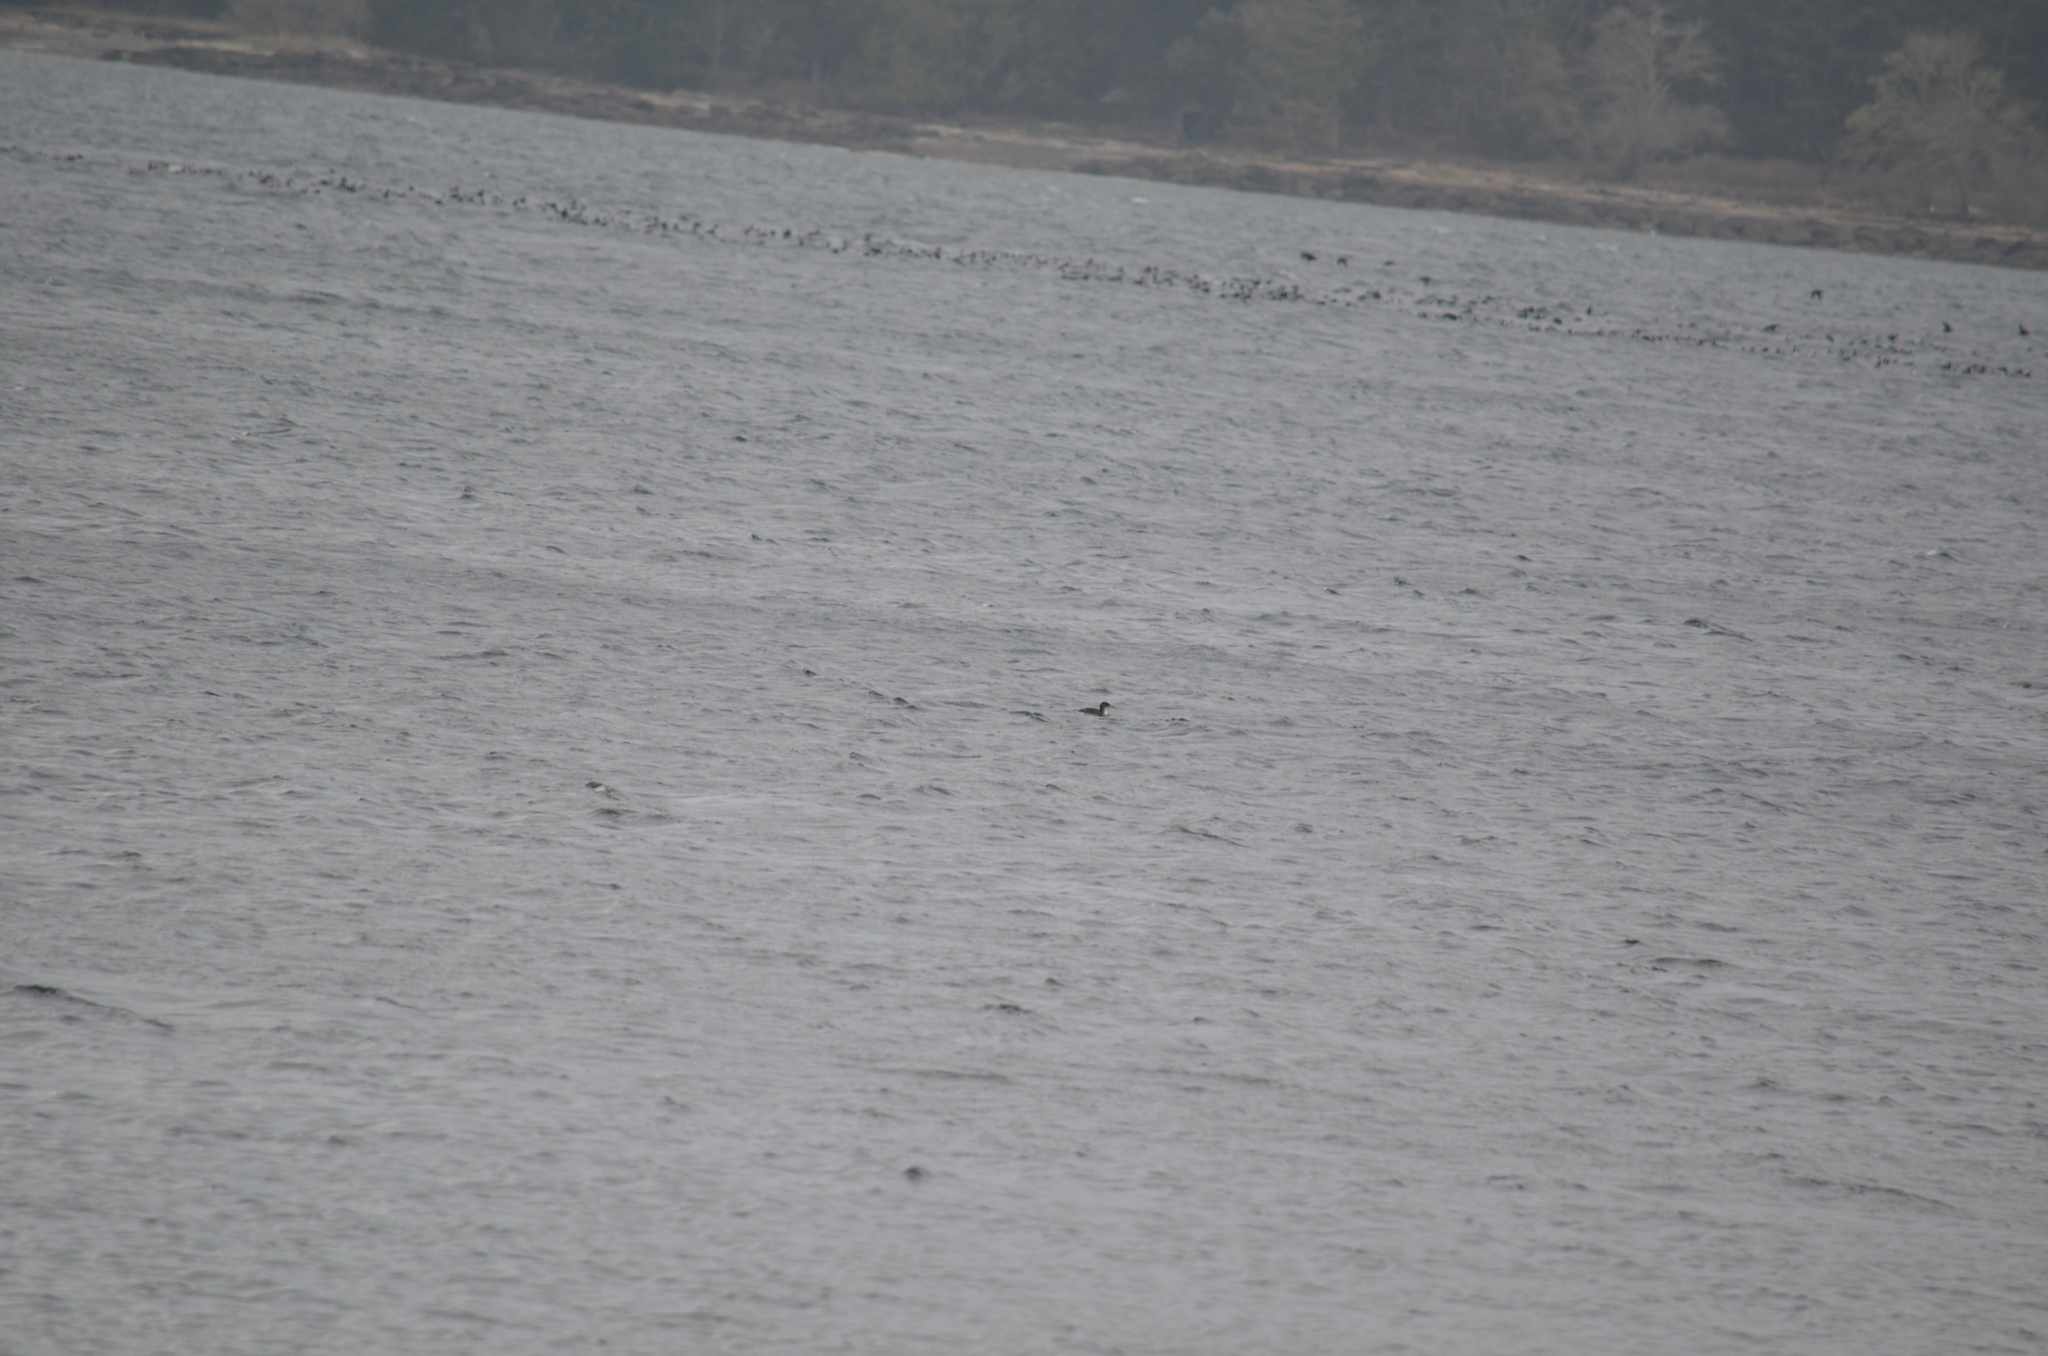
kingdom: Animalia
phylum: Chordata
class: Aves
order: Gaviiformes
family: Gaviidae
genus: Gavia
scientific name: Gavia immer
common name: Common loon
